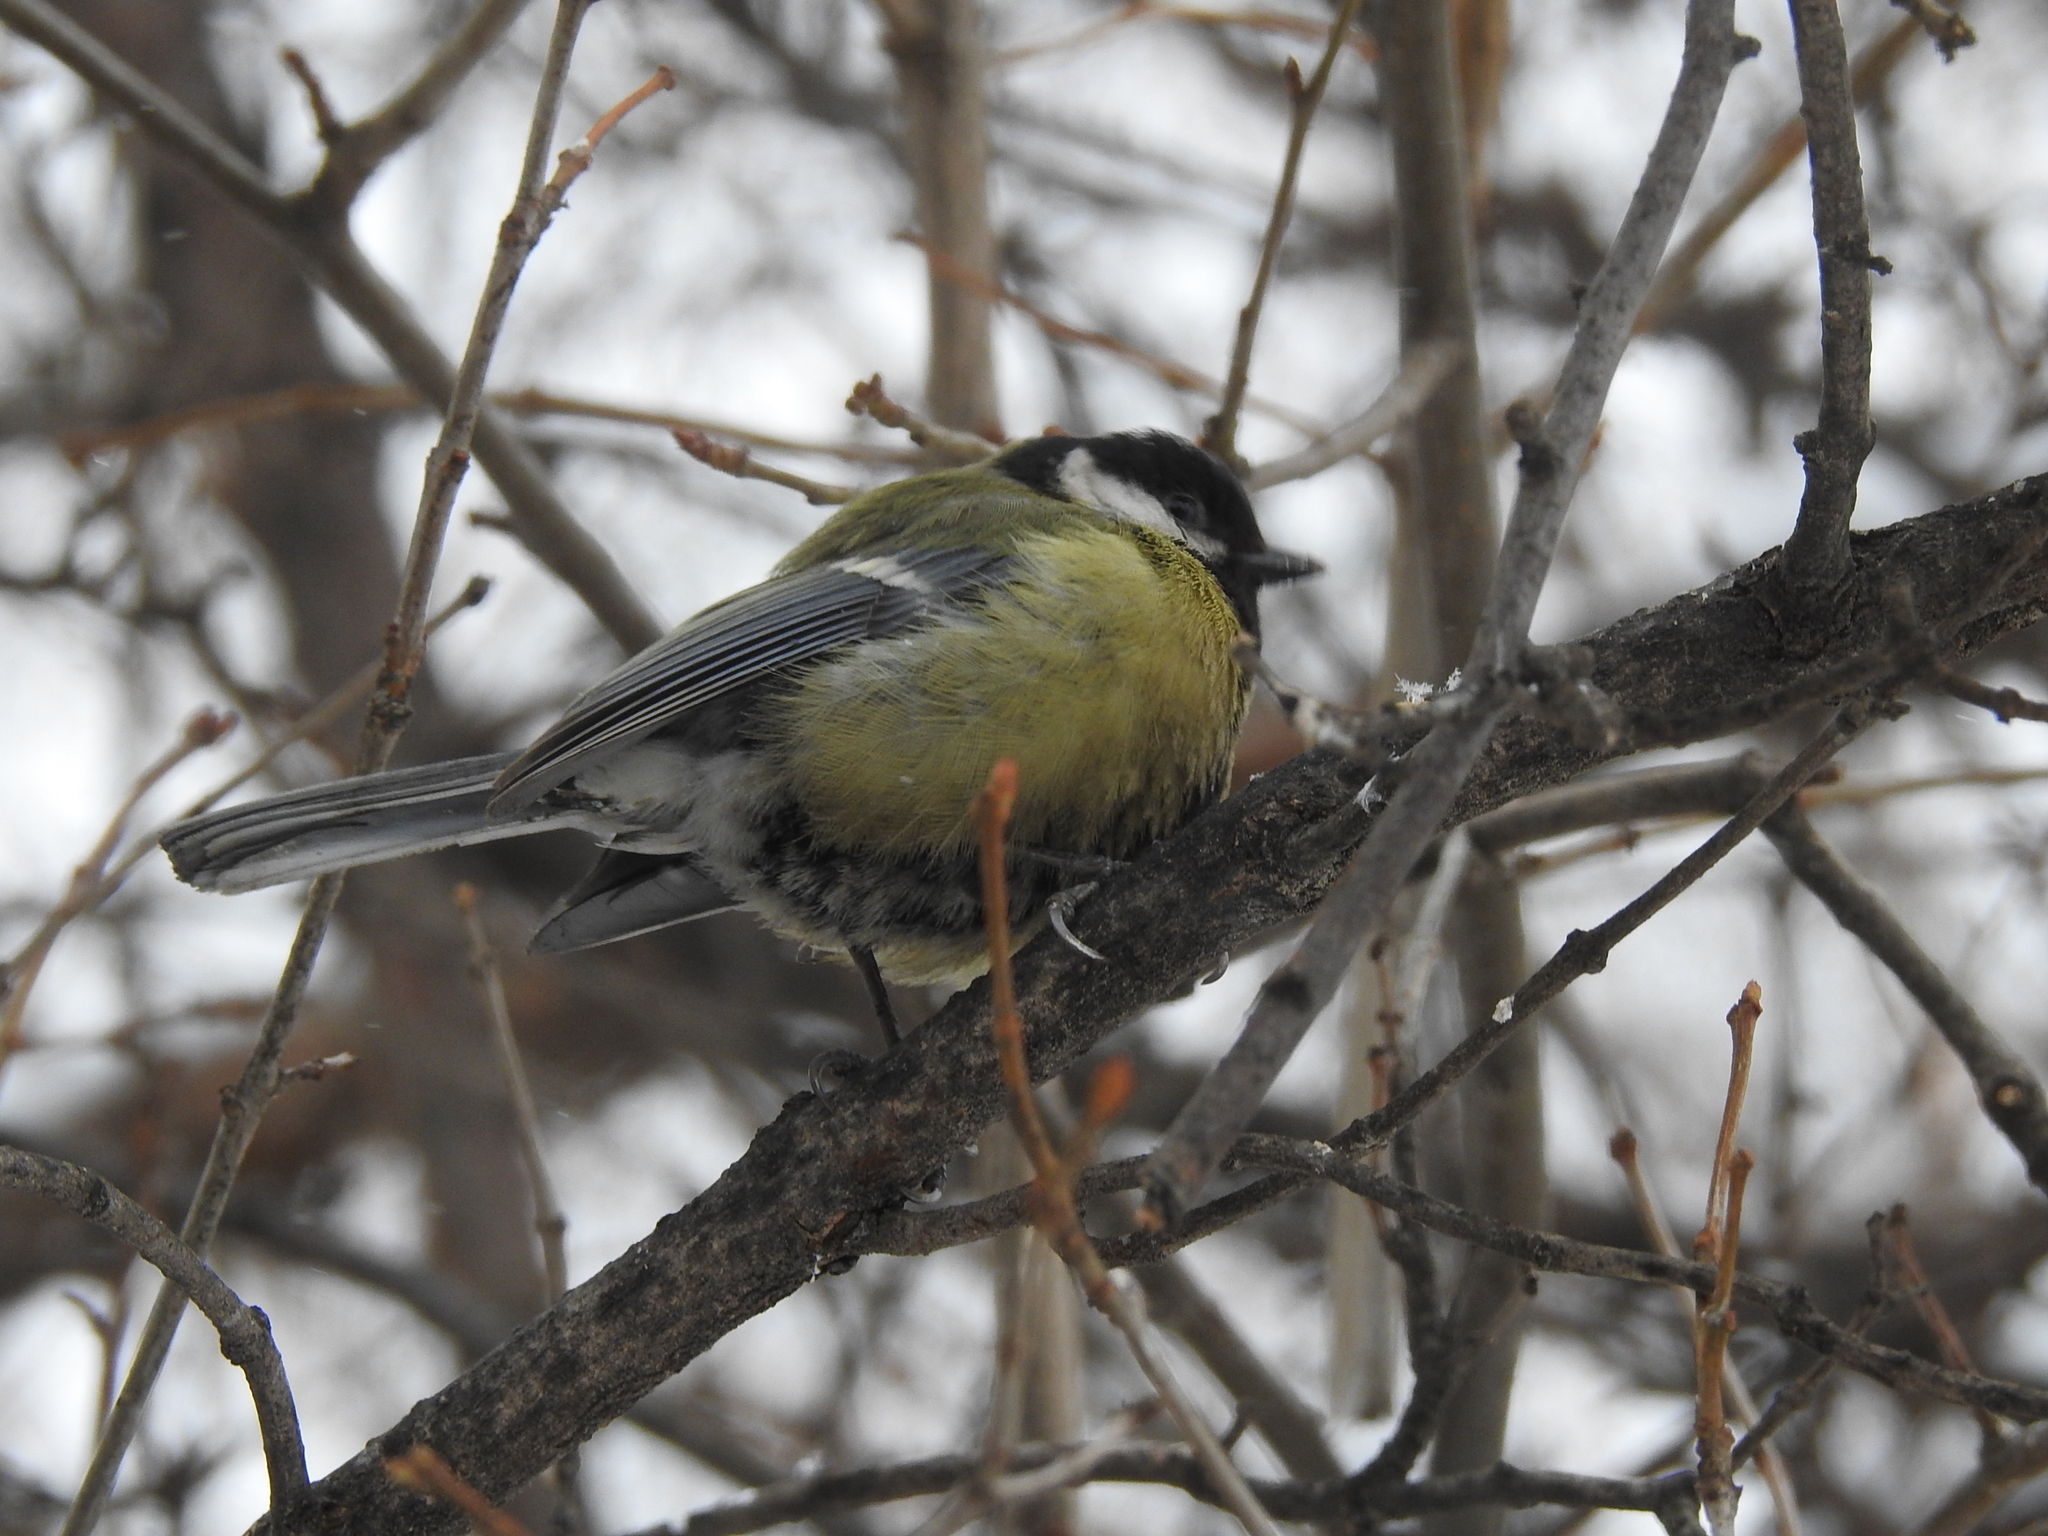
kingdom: Animalia
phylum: Chordata
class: Aves
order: Passeriformes
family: Paridae
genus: Parus
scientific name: Parus major
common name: Great tit
